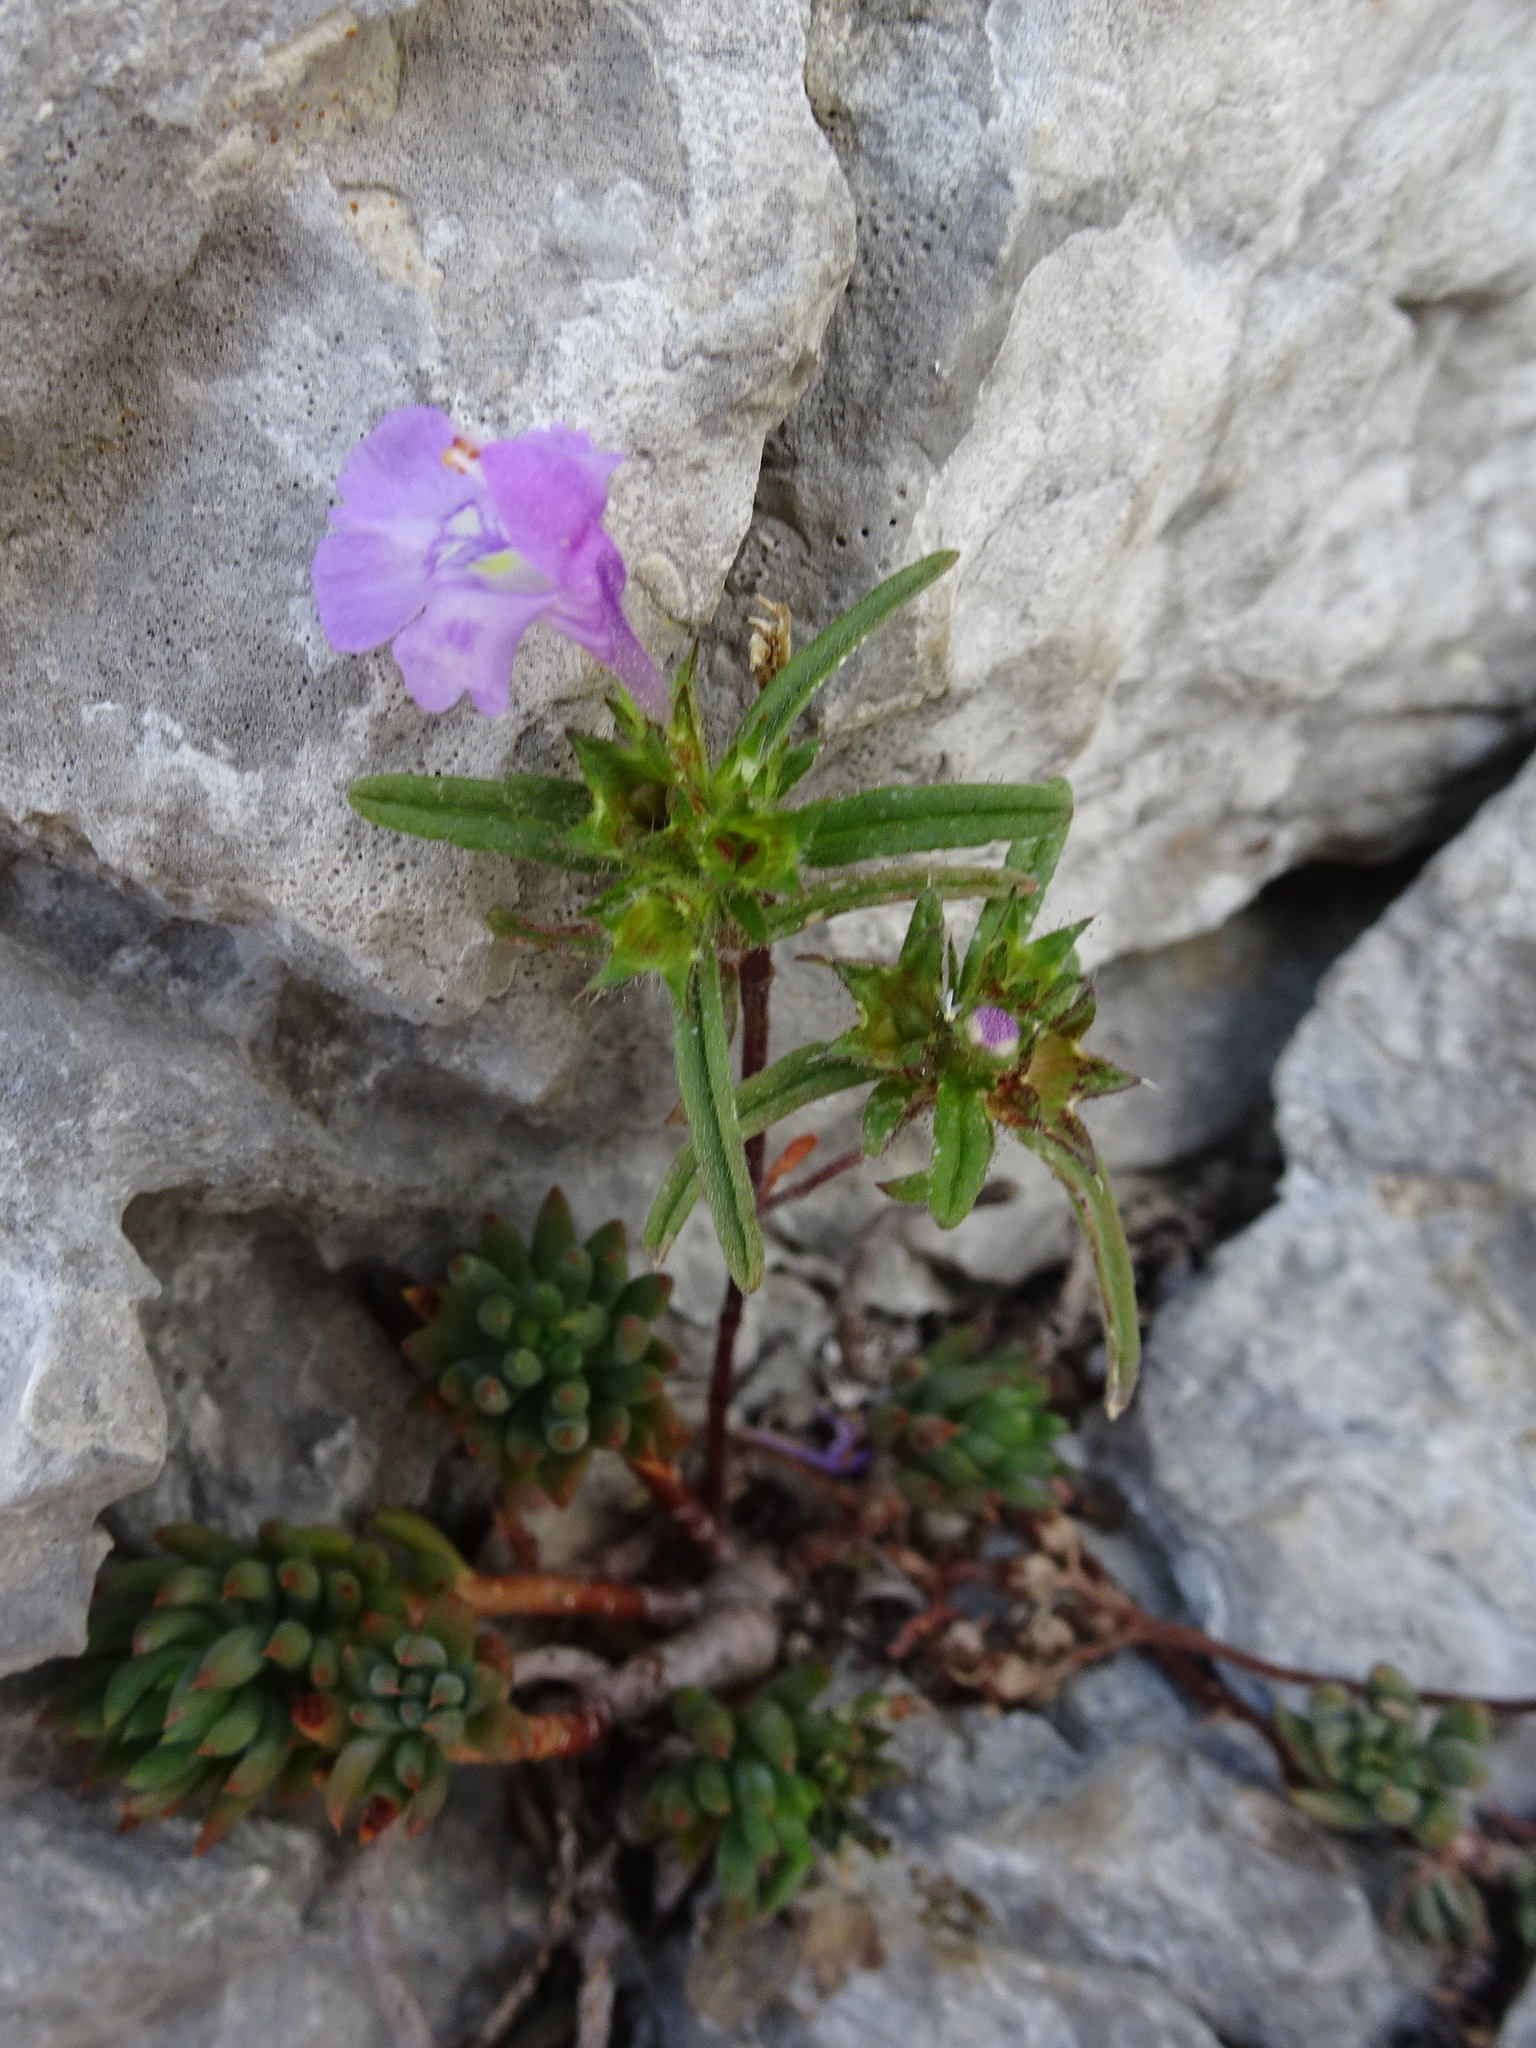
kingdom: Plantae
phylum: Tracheophyta
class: Magnoliopsida
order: Lamiales
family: Lamiaceae
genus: Galeopsis
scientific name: Galeopsis angustifolia
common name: Red hemp-nettle
